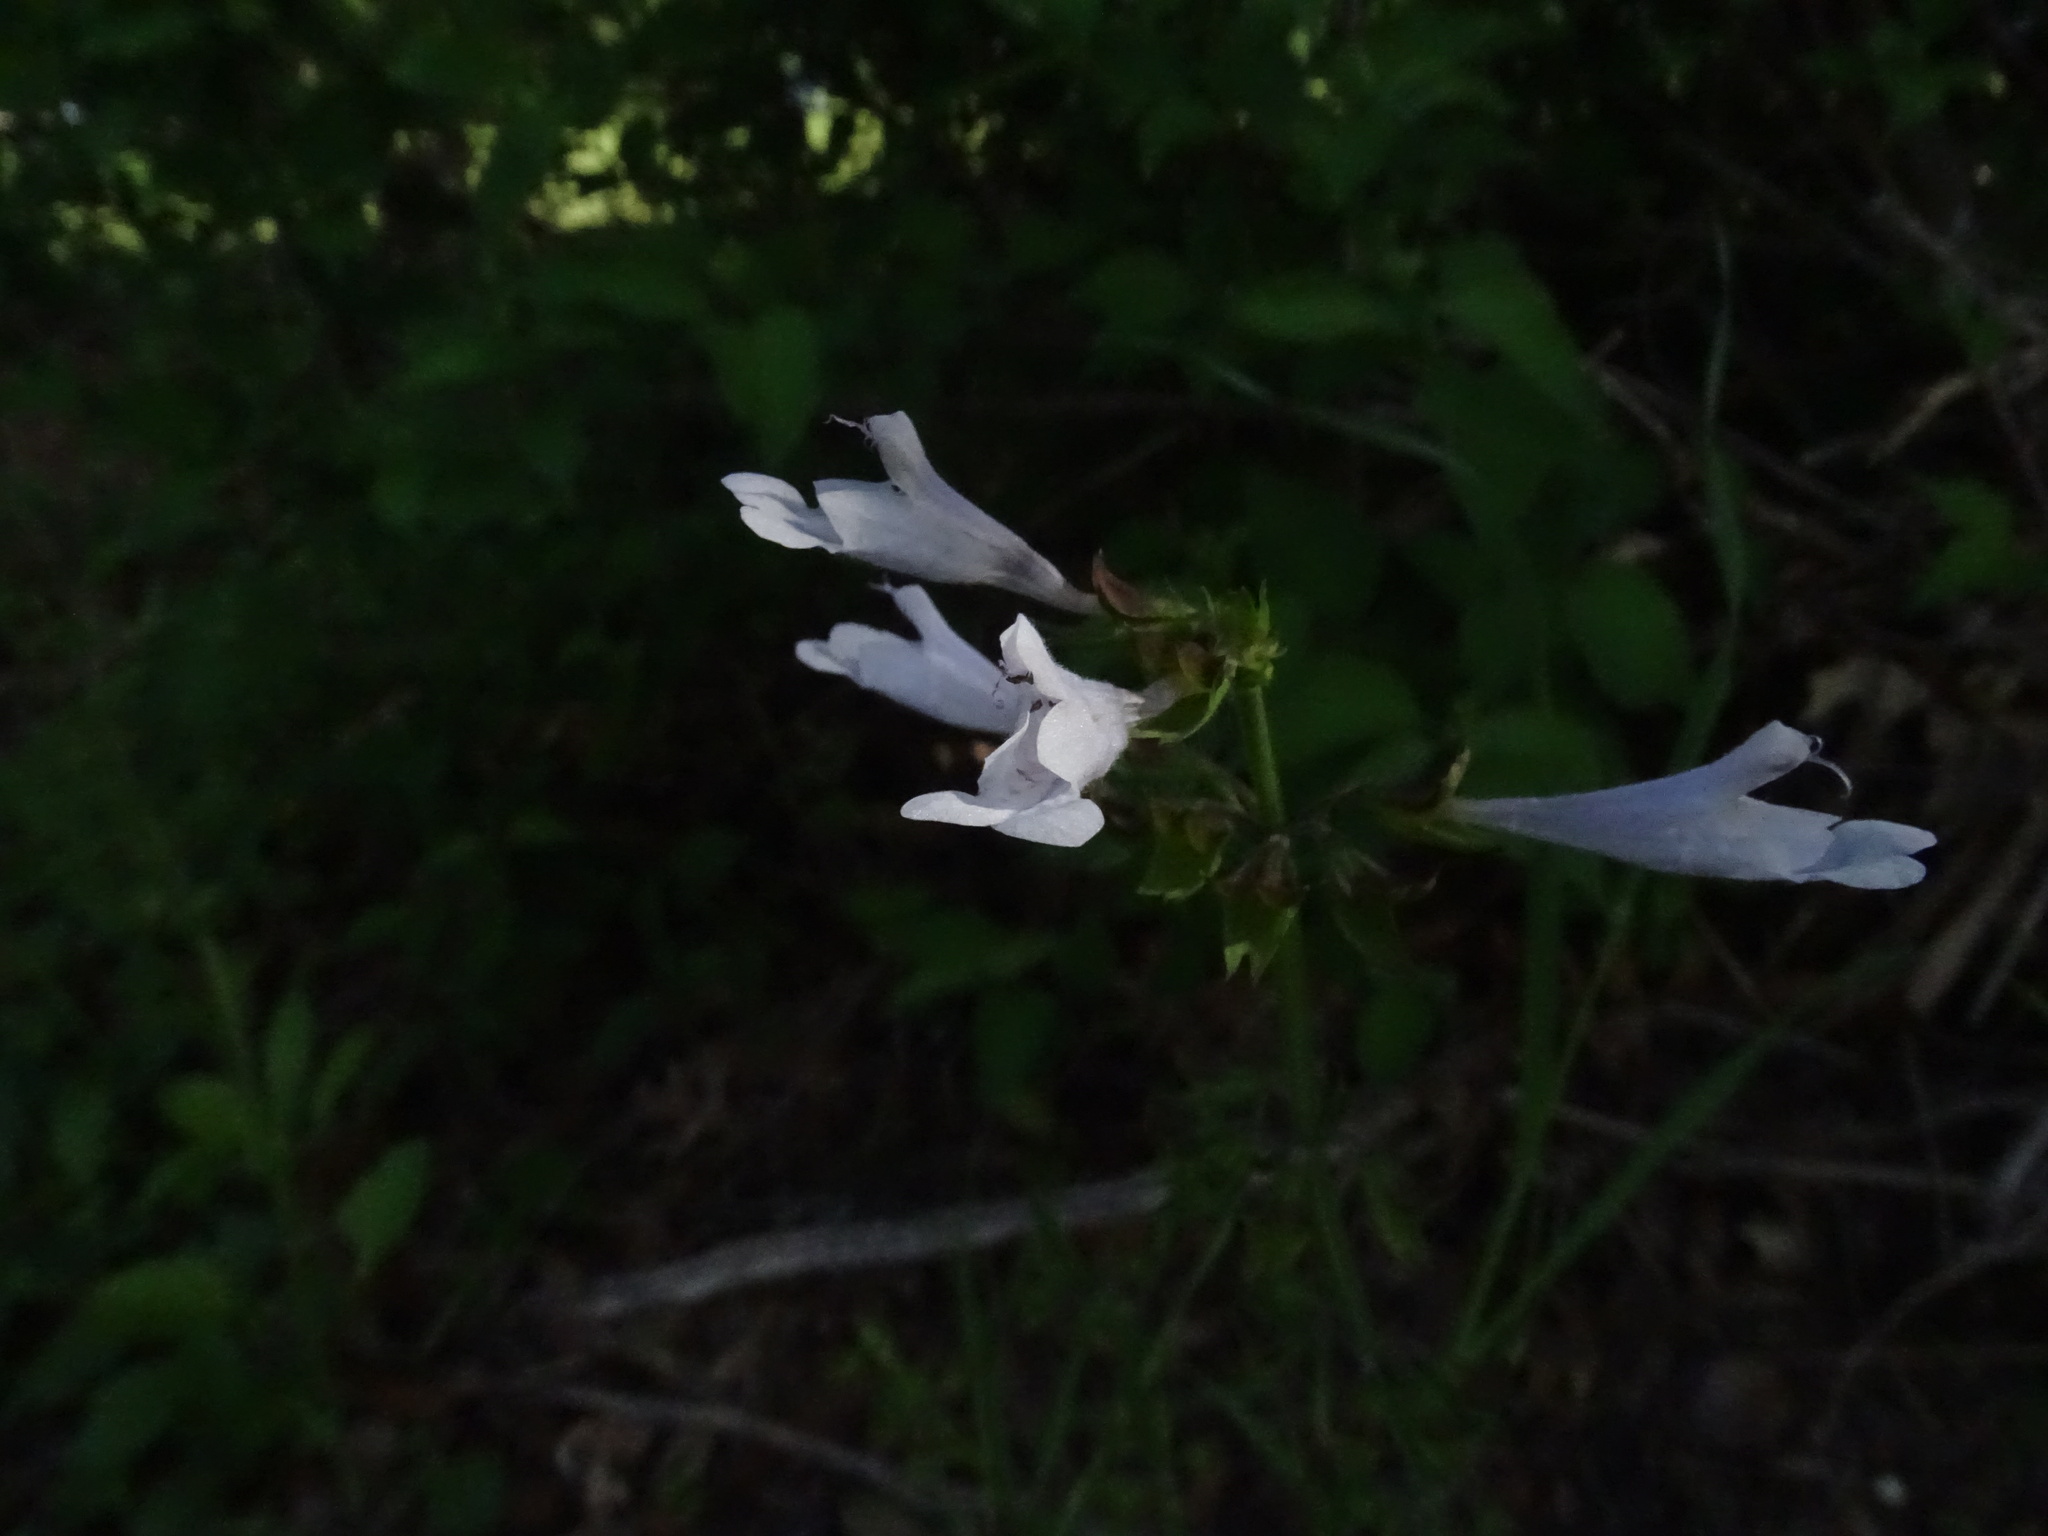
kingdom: Plantae
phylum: Tracheophyta
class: Magnoliopsida
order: Lamiales
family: Lamiaceae
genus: Salvia
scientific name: Salvia lyrata
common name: Cancerweed
